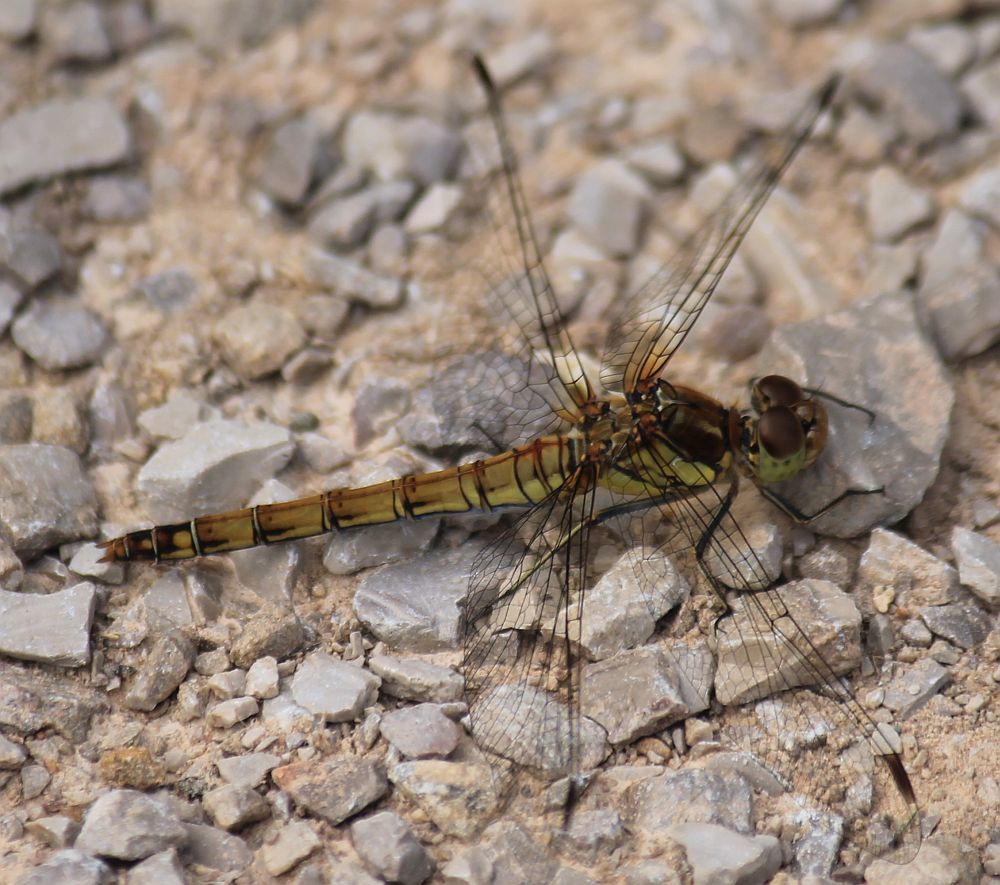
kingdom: Animalia
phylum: Arthropoda
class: Insecta
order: Odonata
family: Libellulidae
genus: Sympetrum
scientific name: Sympetrum striolatum
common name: Common darter
